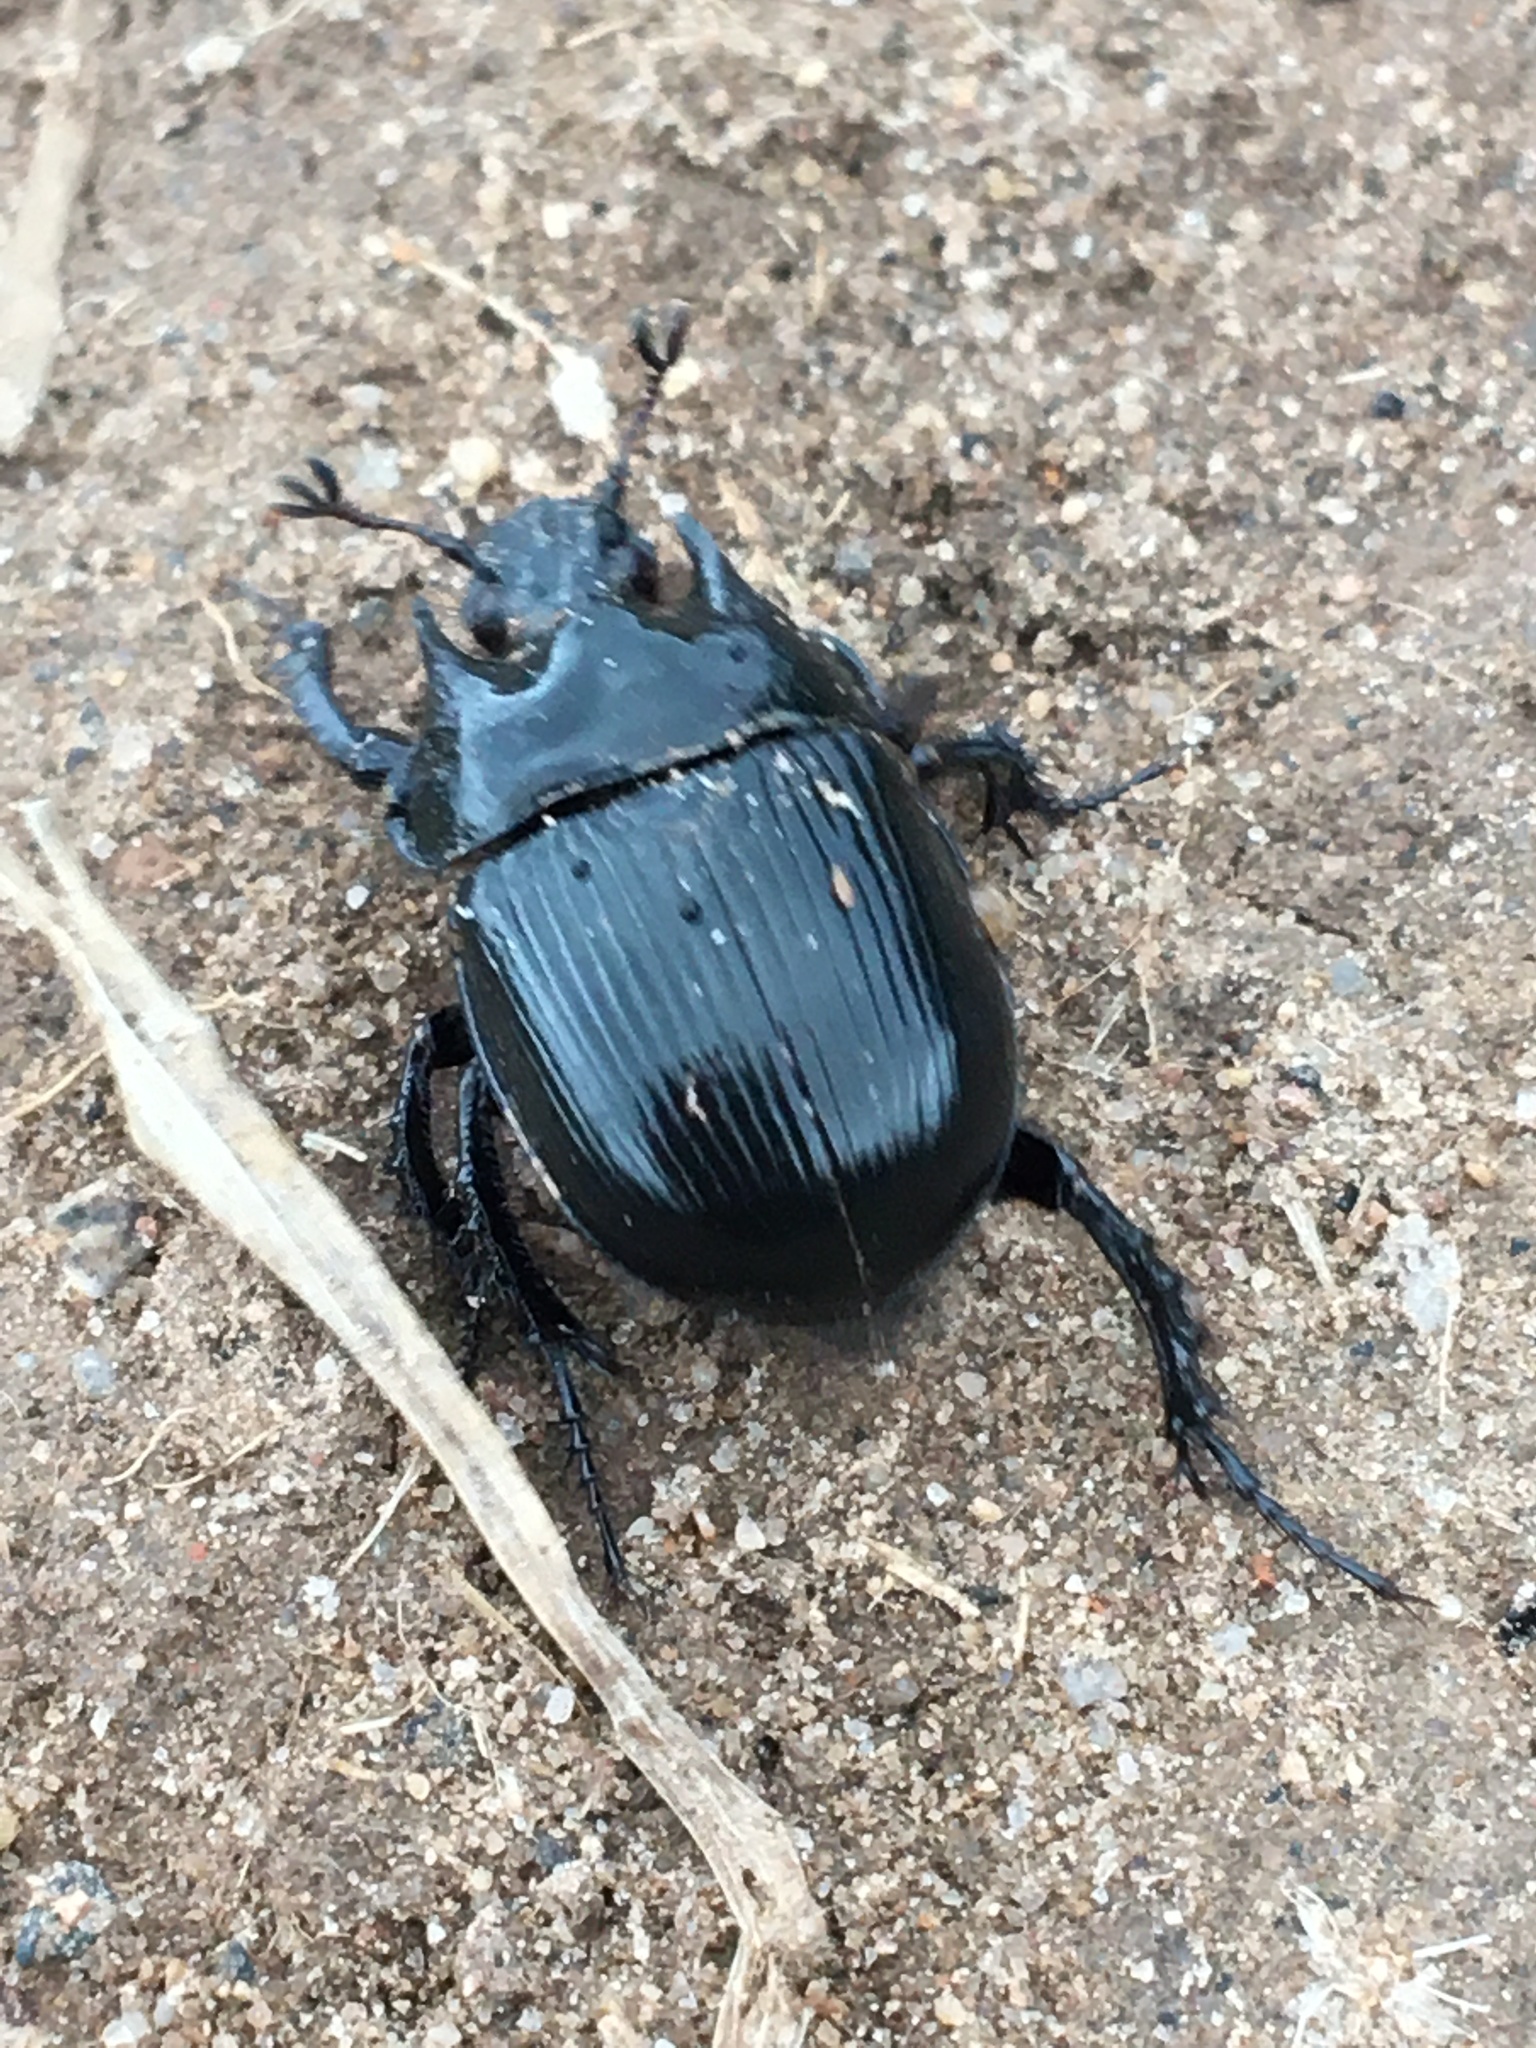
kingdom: Animalia
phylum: Arthropoda
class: Insecta
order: Coleoptera
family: Geotrupidae
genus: Typhaeus
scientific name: Typhaeus typhoeus
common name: Minotaur beetle
